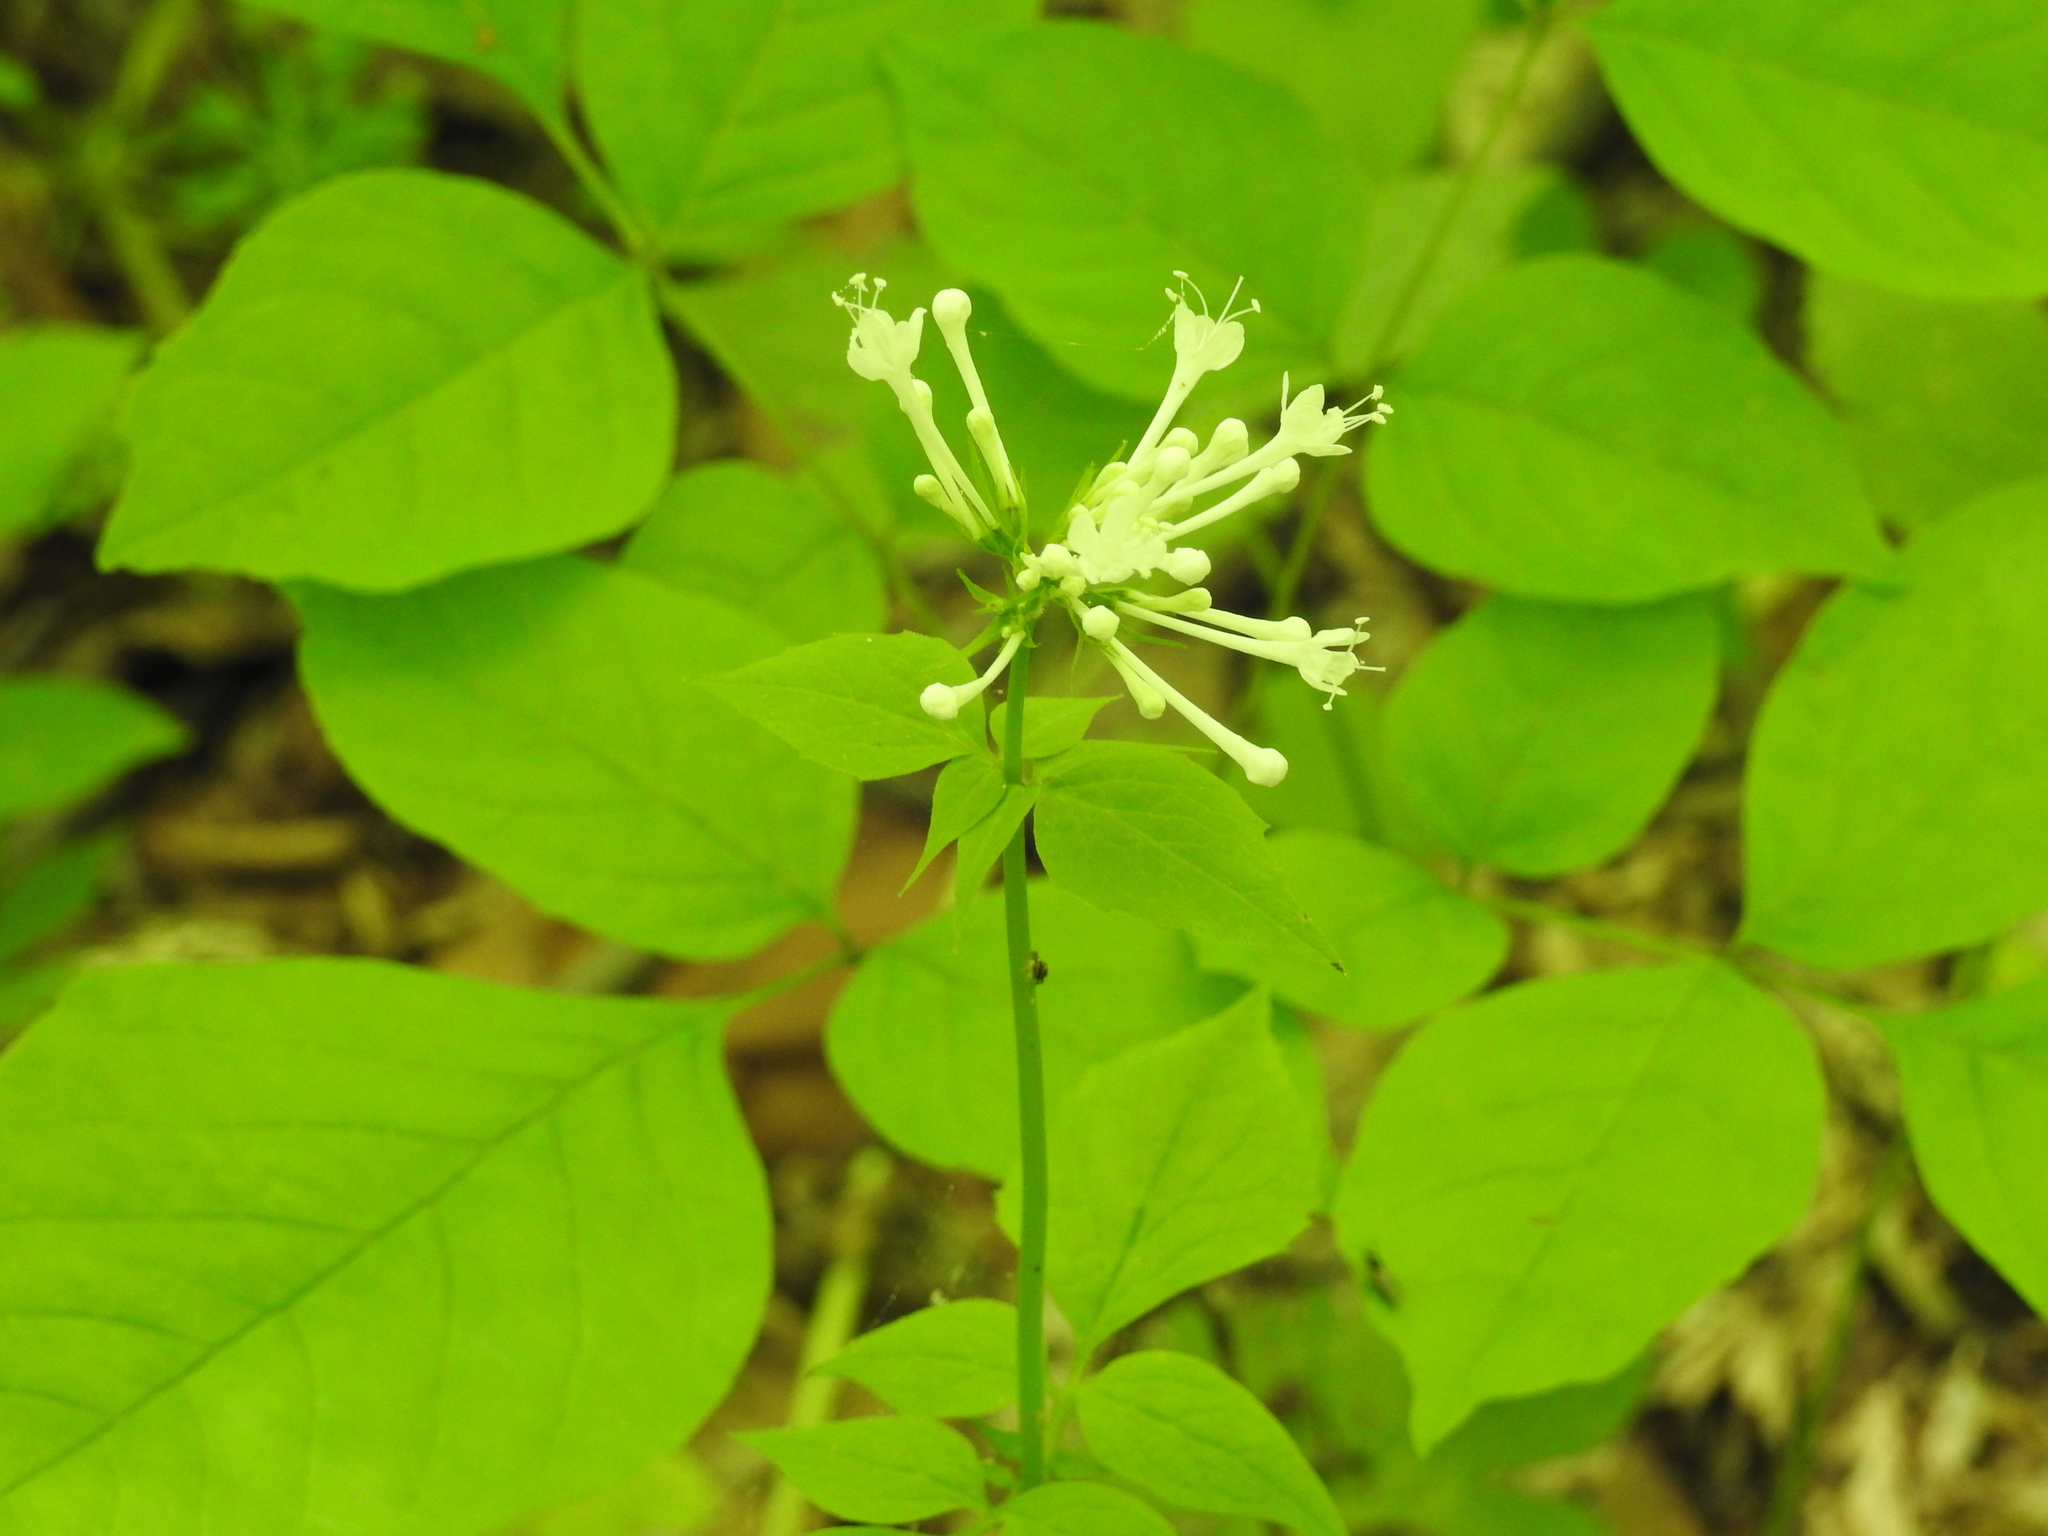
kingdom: Plantae
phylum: Tracheophyta
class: Magnoliopsida
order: Dipsacales
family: Caprifoliaceae
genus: Valeriana
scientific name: Valeriana pauciflora
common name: Long-tube valeriana
